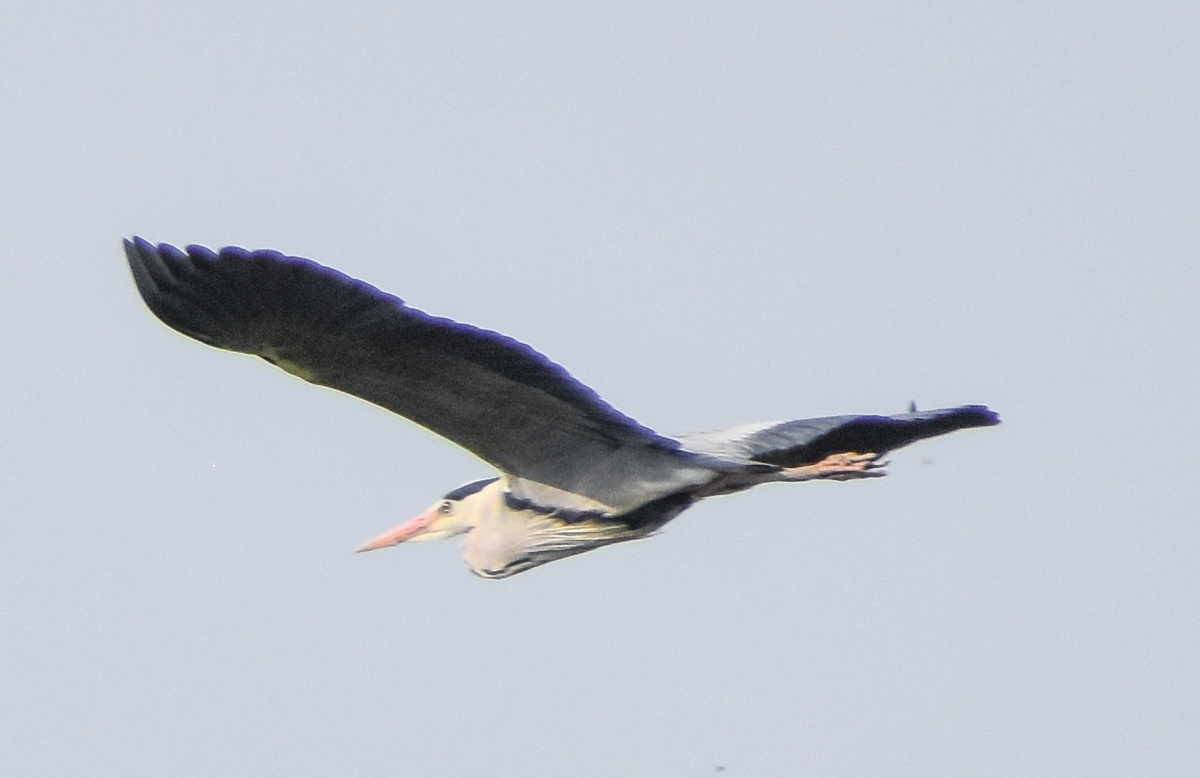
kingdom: Animalia
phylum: Chordata
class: Aves
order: Pelecaniformes
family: Ardeidae
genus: Ardea
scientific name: Ardea cinerea
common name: Grey heron
